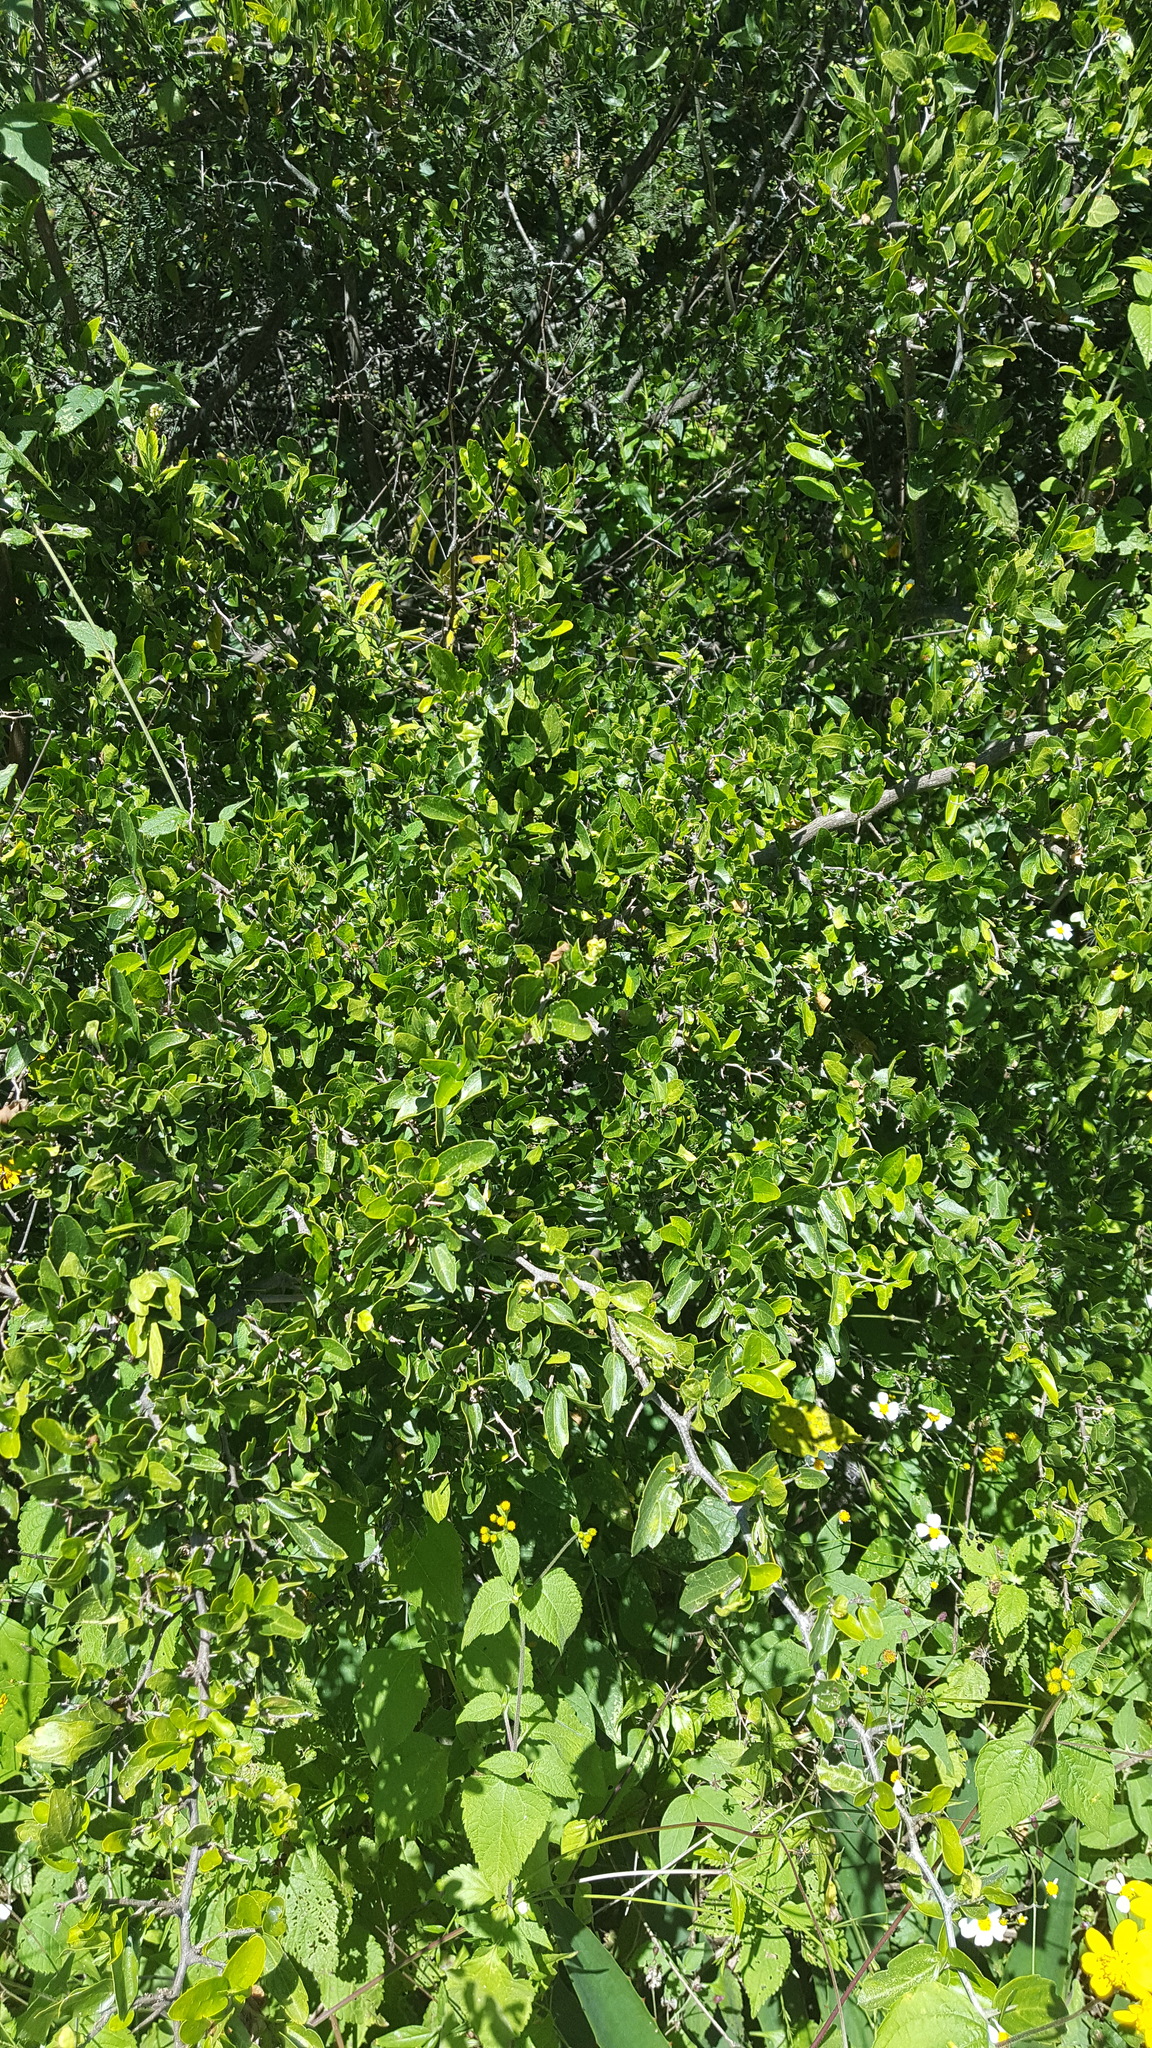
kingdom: Plantae
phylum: Tracheophyta
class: Magnoliopsida
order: Rosales
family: Cannabaceae
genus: Celtis
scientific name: Celtis pallida
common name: Desert hackberry
